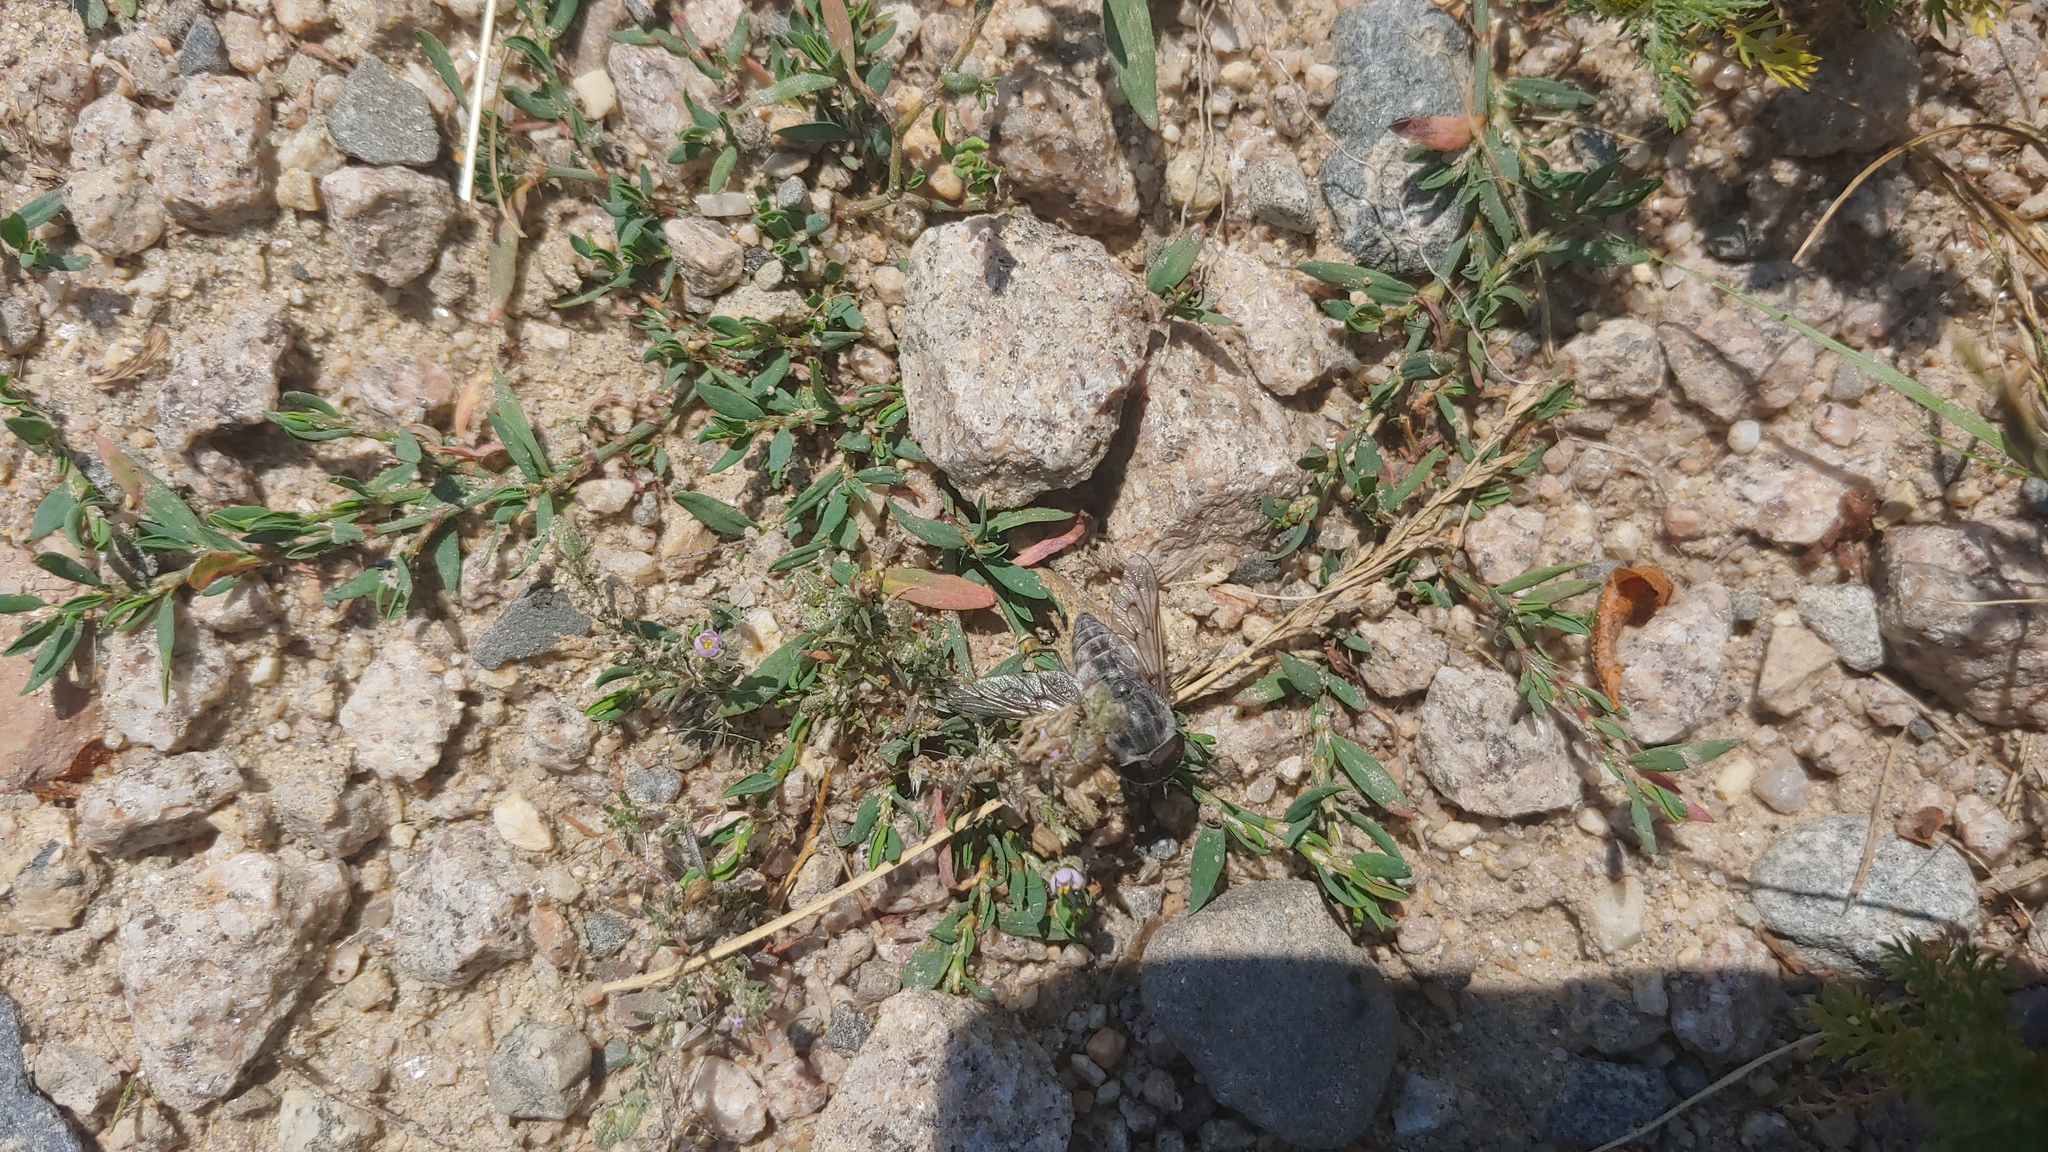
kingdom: Plantae
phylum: Tracheophyta
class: Magnoliopsida
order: Caryophyllales
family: Polygonaceae
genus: Polygonum
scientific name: Polygonum aviculare
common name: Prostrate knotweed
